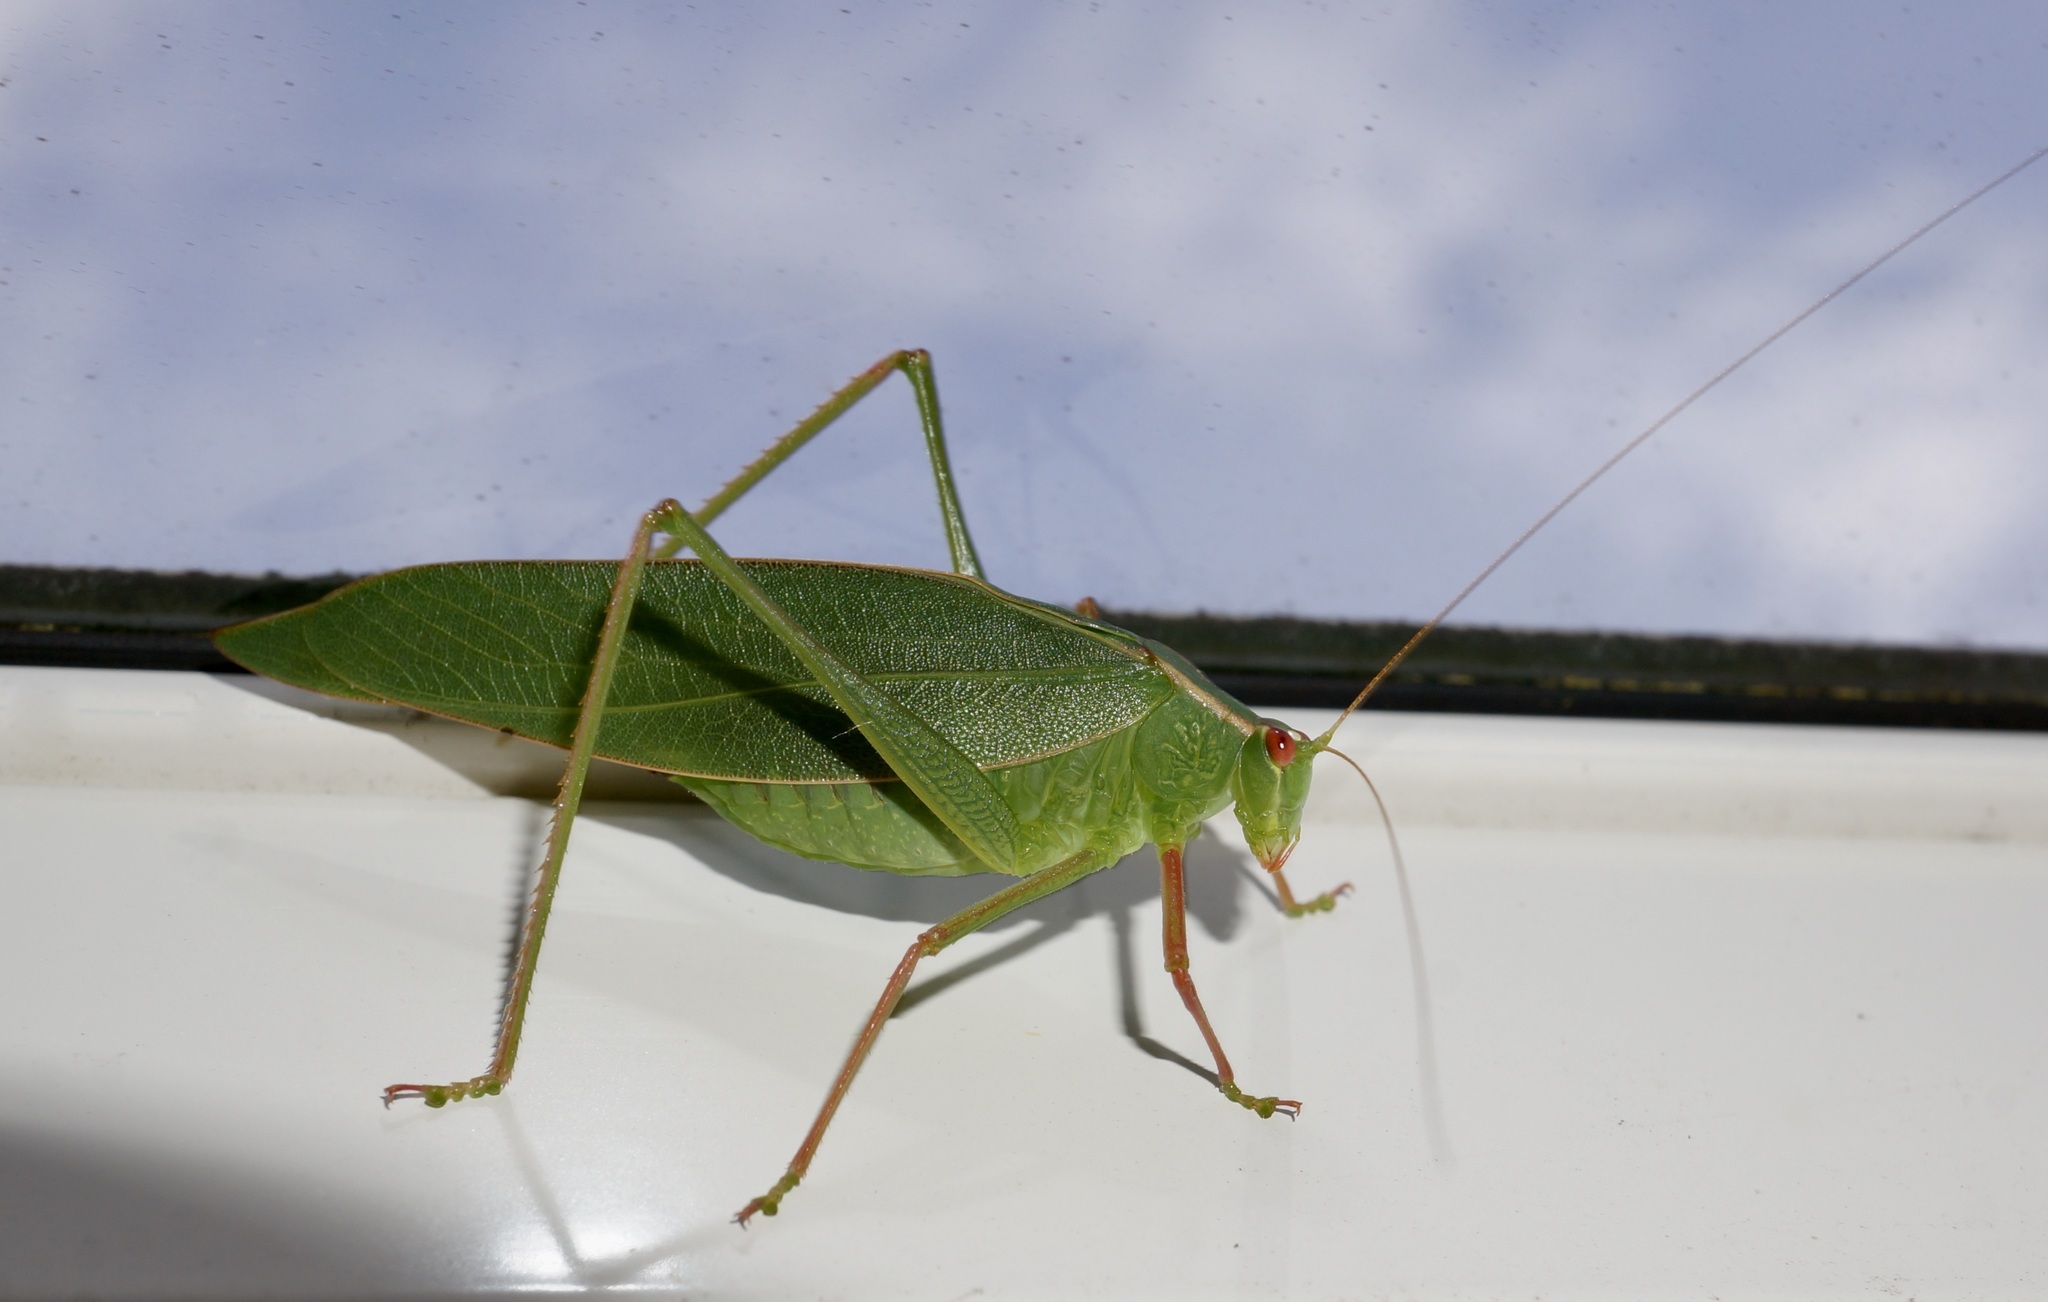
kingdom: Animalia
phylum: Arthropoda
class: Insecta
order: Orthoptera
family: Tettigoniidae
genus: Caedicia
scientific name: Caedicia simplex
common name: Common garden katydid
